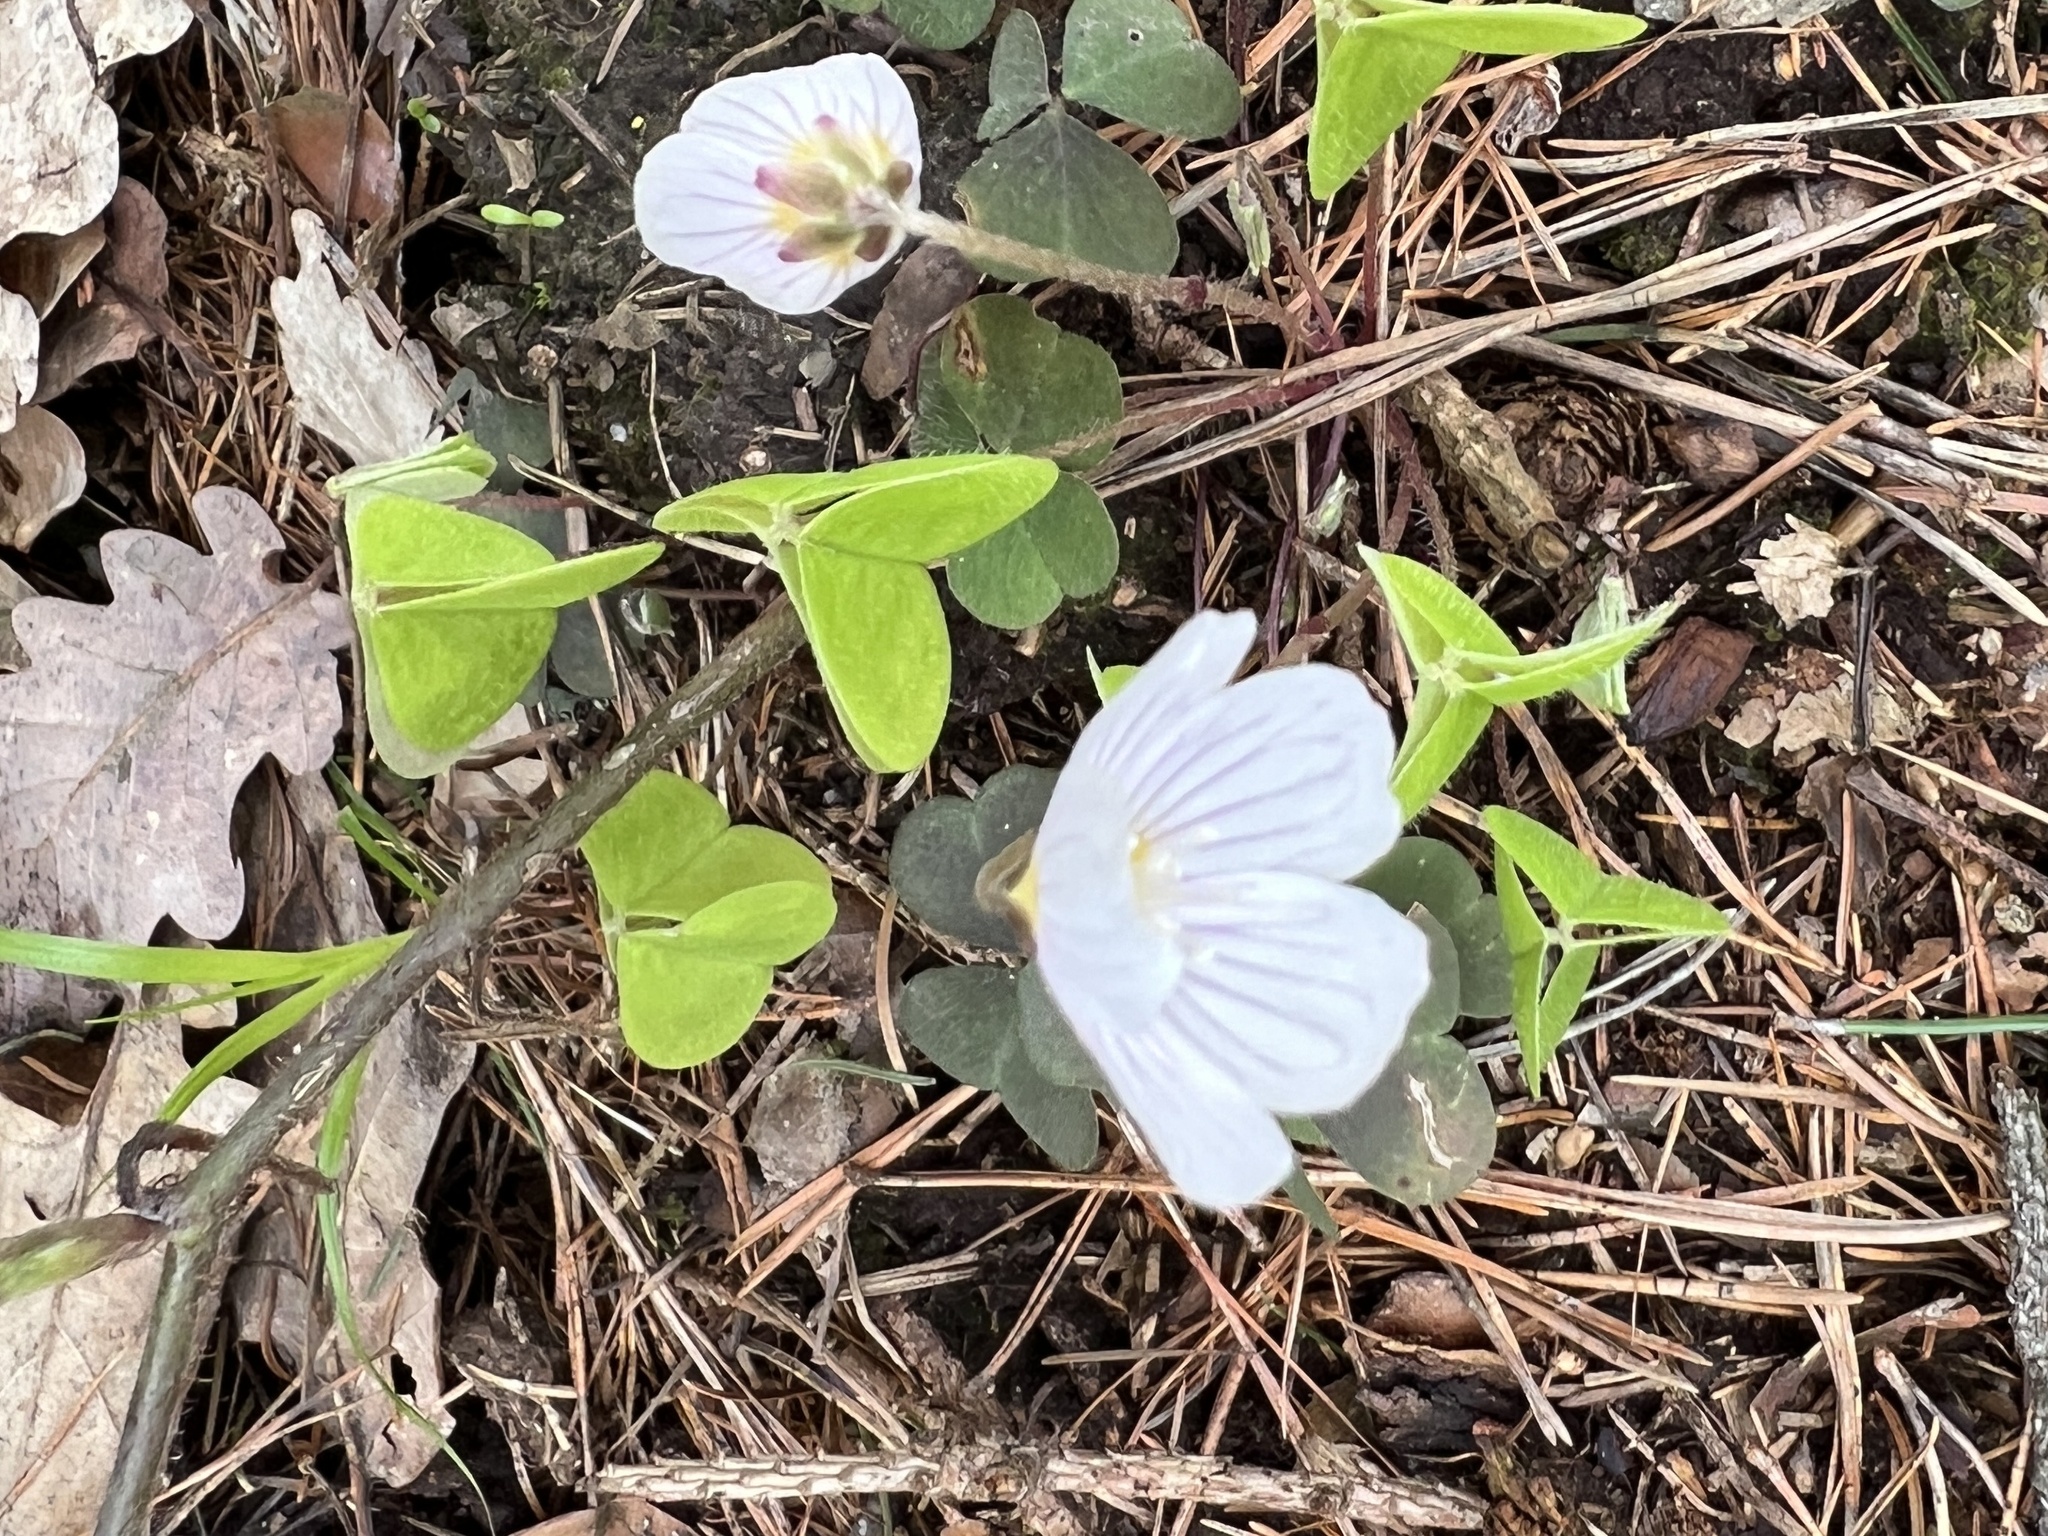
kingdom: Plantae
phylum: Tracheophyta
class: Magnoliopsida
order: Oxalidales
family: Oxalidaceae
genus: Oxalis
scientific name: Oxalis acetosella
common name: Wood-sorrel
